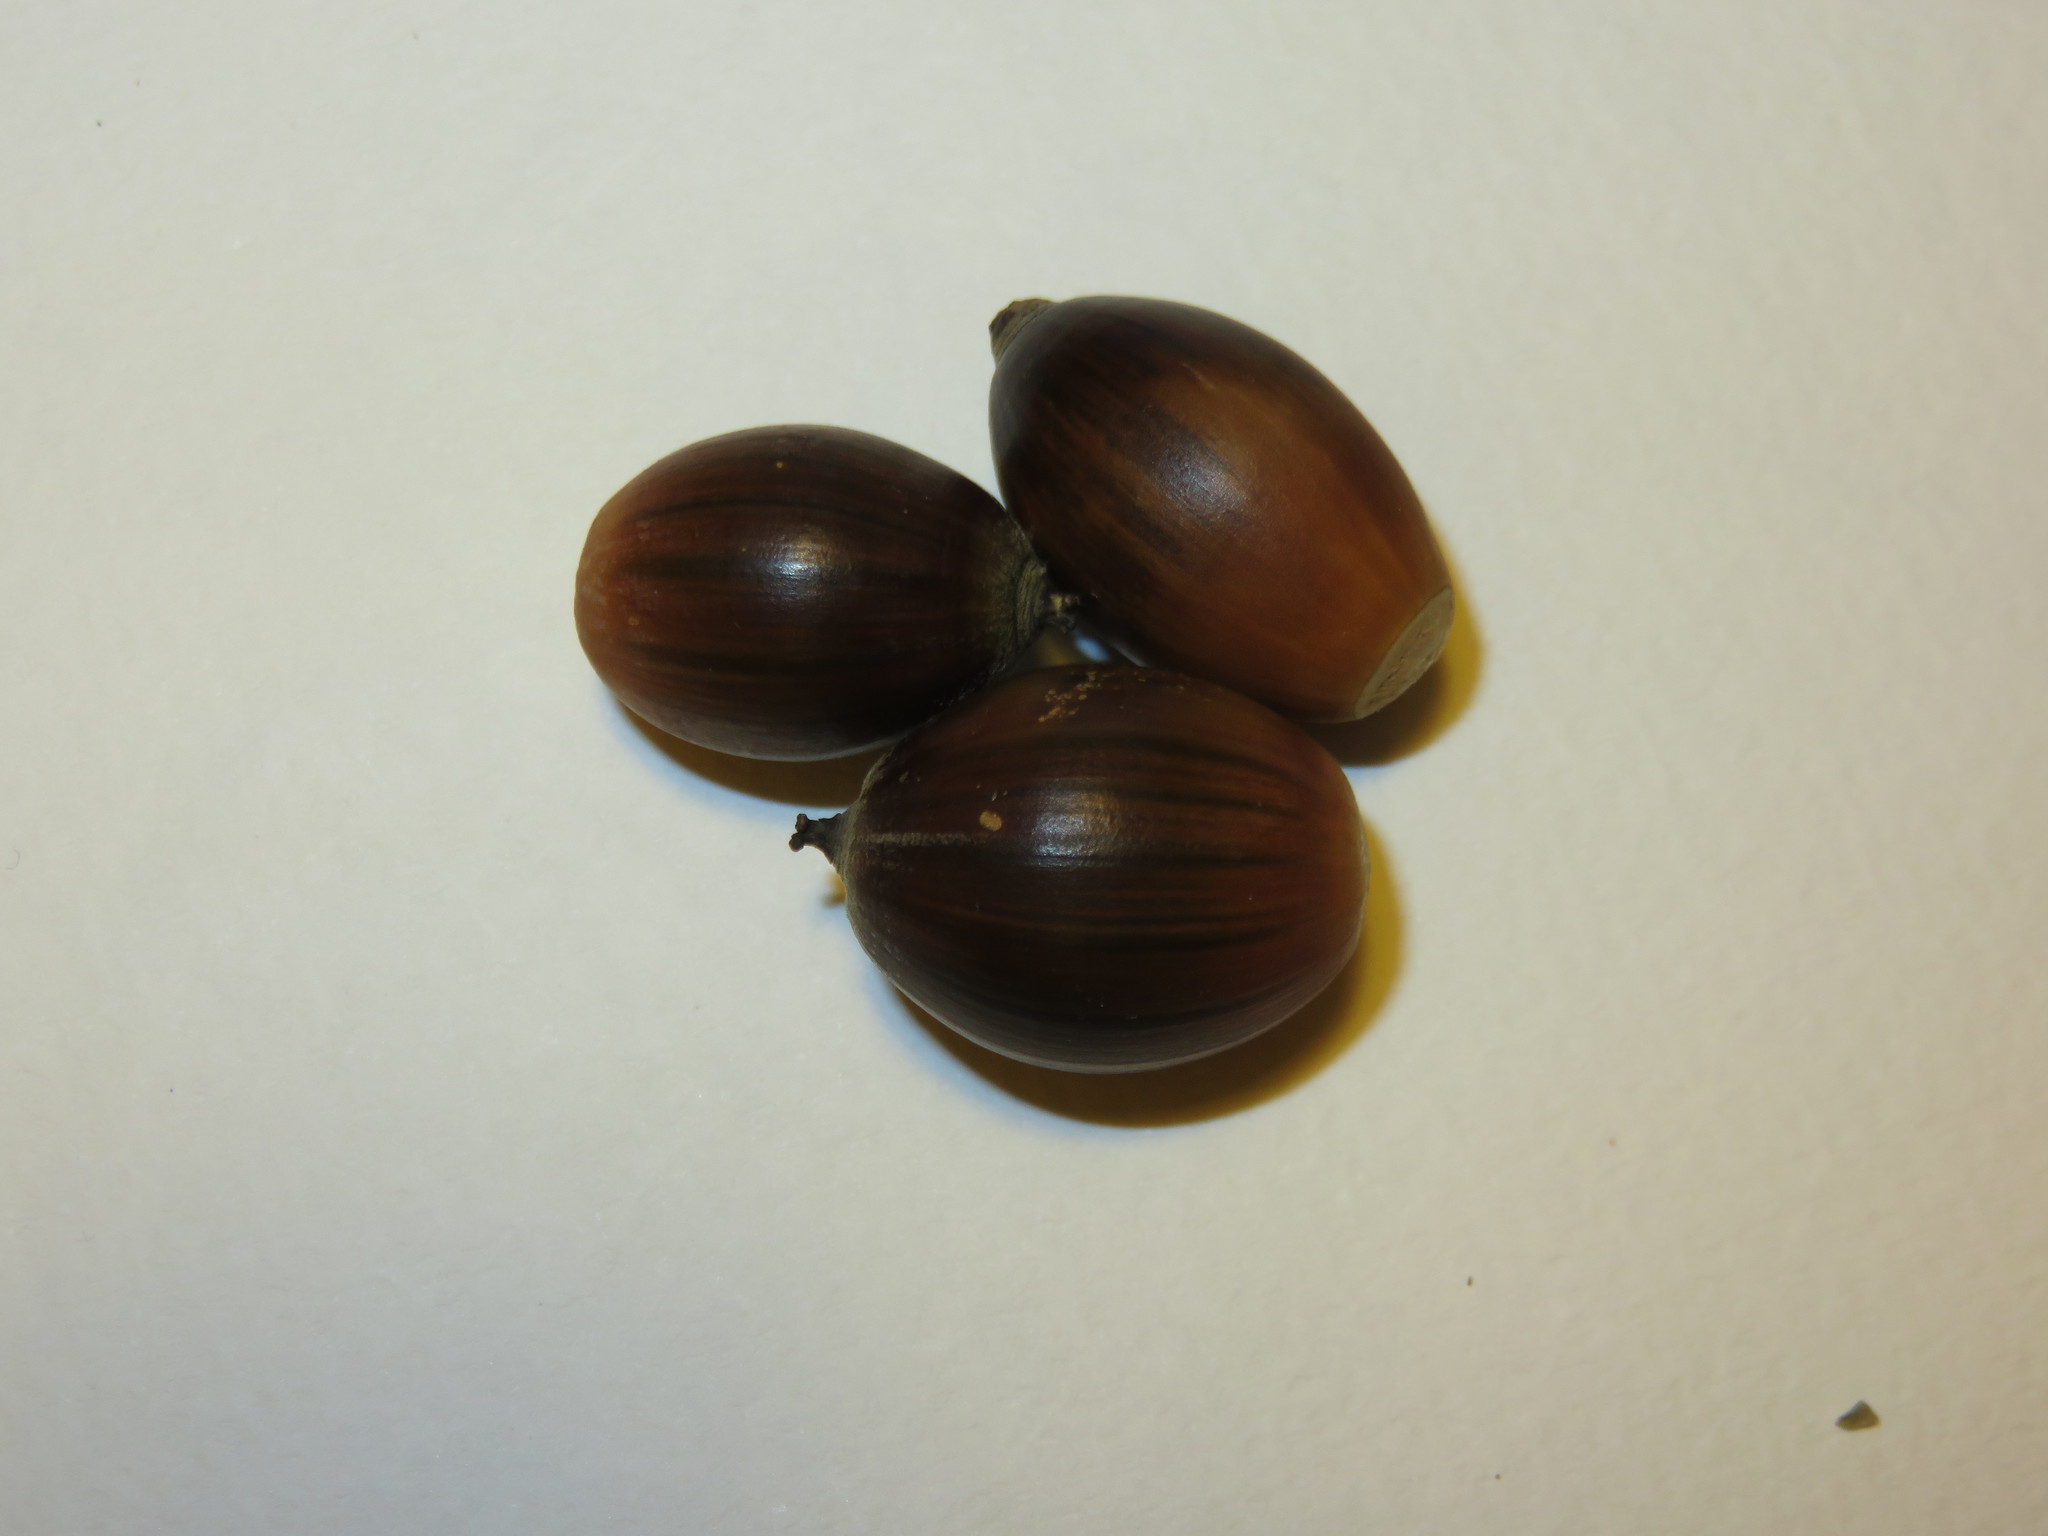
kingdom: Plantae
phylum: Tracheophyta
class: Magnoliopsida
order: Fagales
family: Fagaceae
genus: Quercus
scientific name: Quercus glauca
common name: Ring-cup oak
